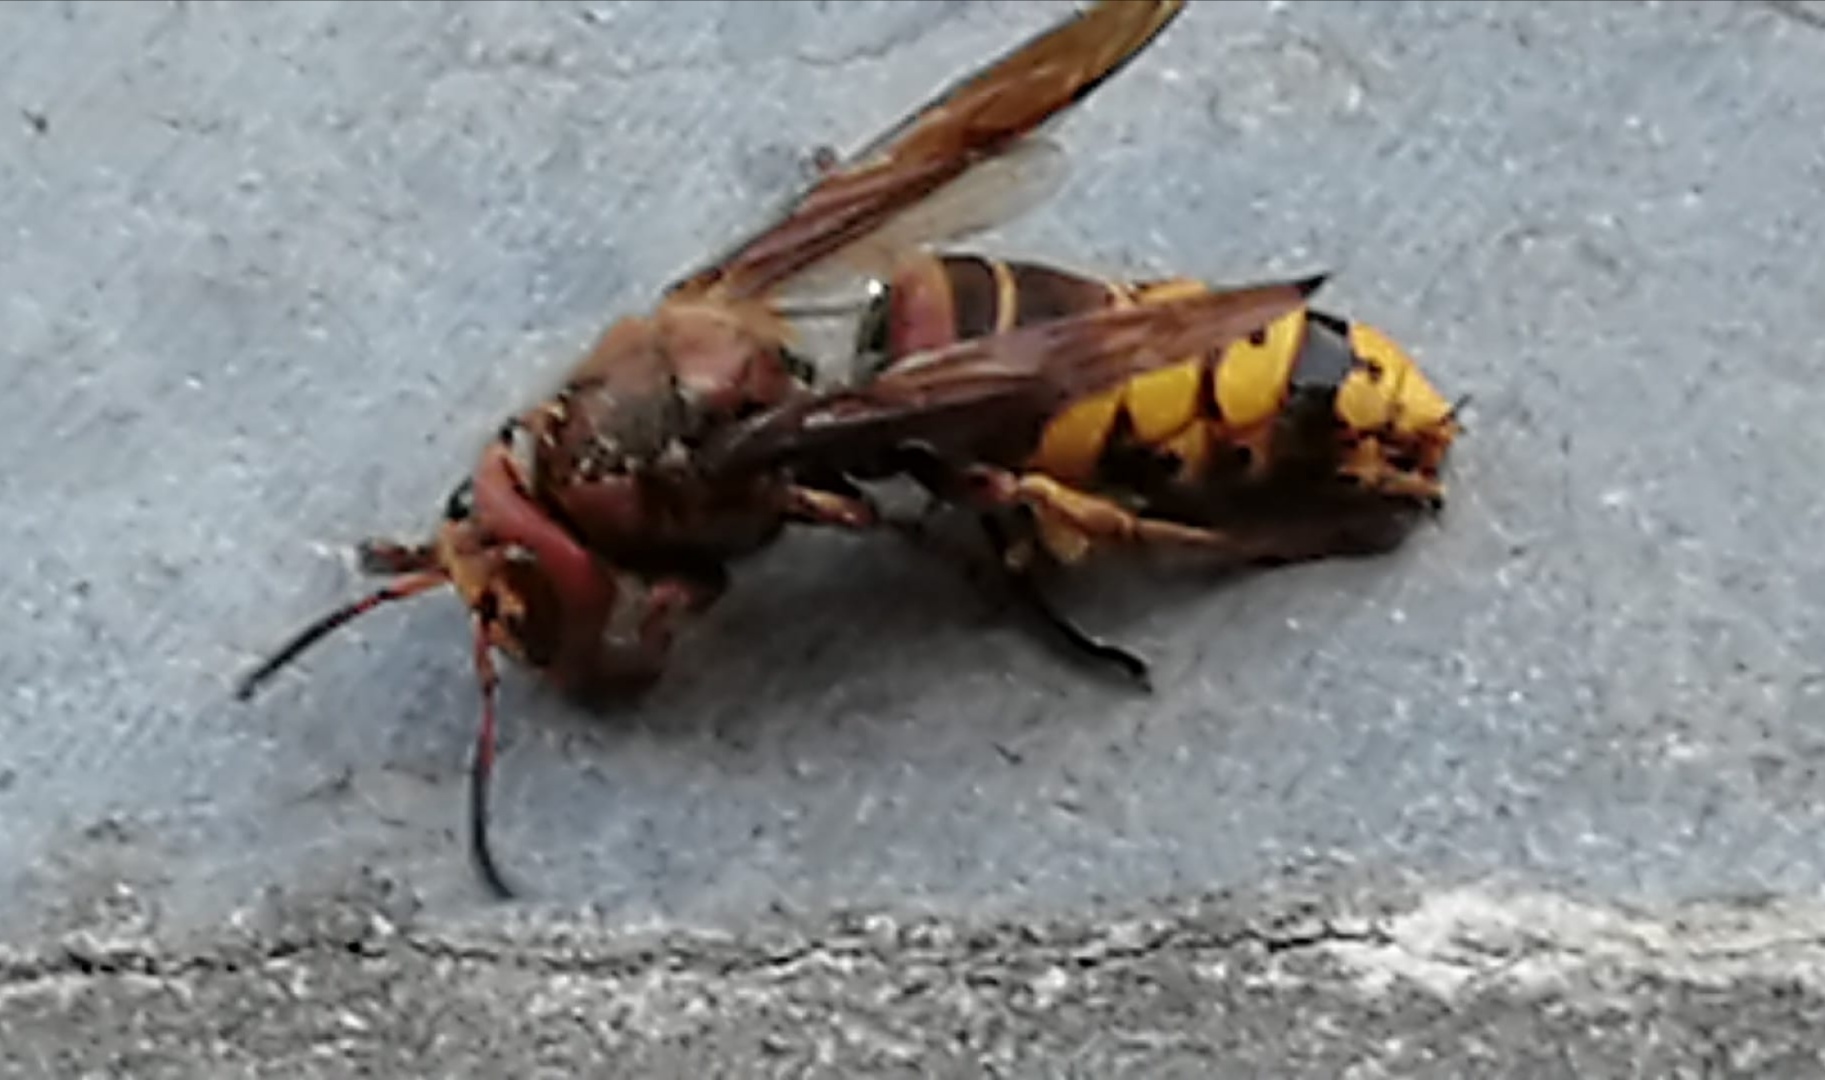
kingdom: Animalia
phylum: Arthropoda
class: Insecta
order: Hymenoptera
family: Vespidae
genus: Vespa
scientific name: Vespa crabro
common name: Hornet
